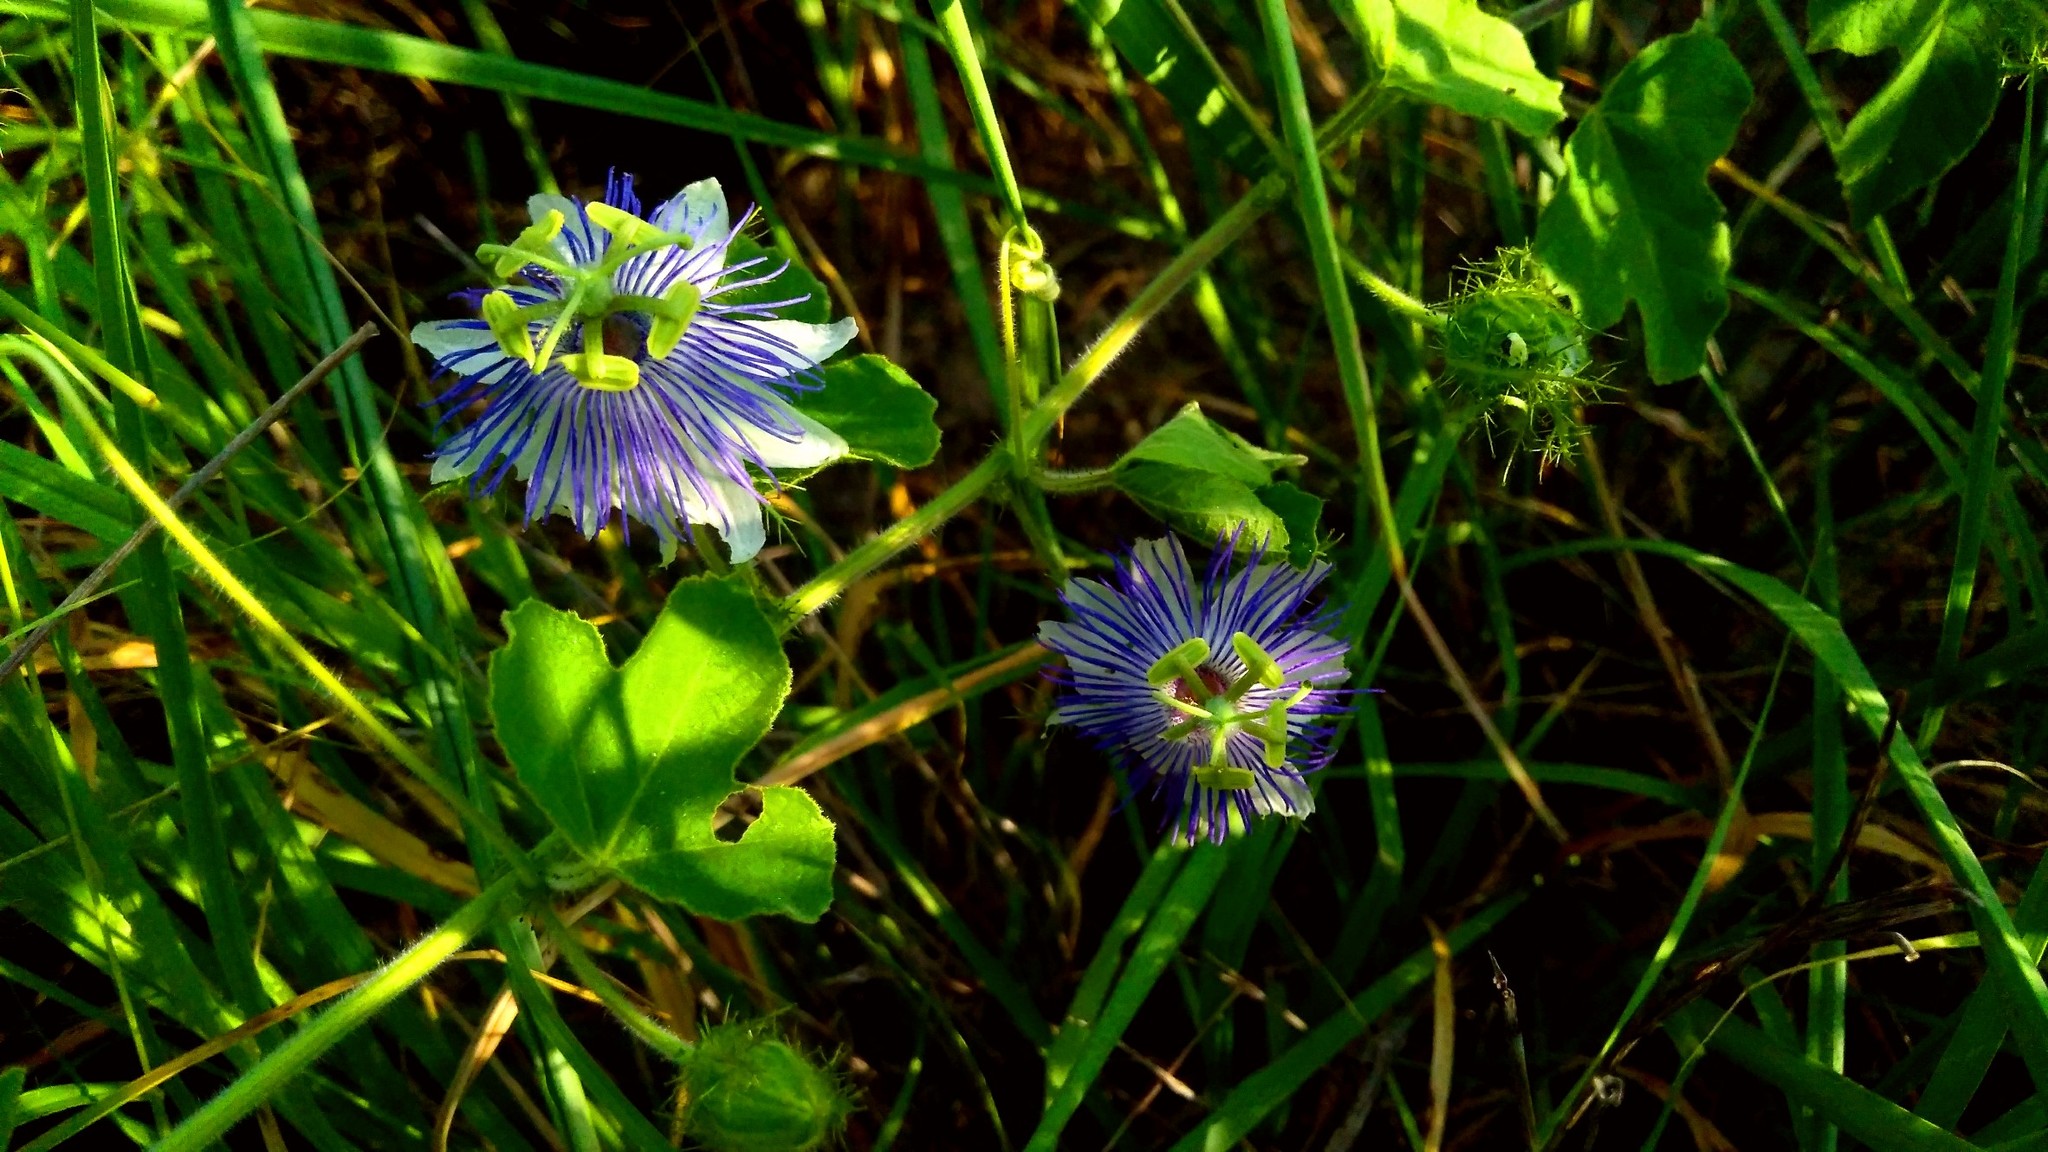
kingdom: Plantae
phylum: Tracheophyta
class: Magnoliopsida
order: Malpighiales
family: Passifloraceae
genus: Passiflora
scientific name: Passiflora foetida
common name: Fetid passionflower
